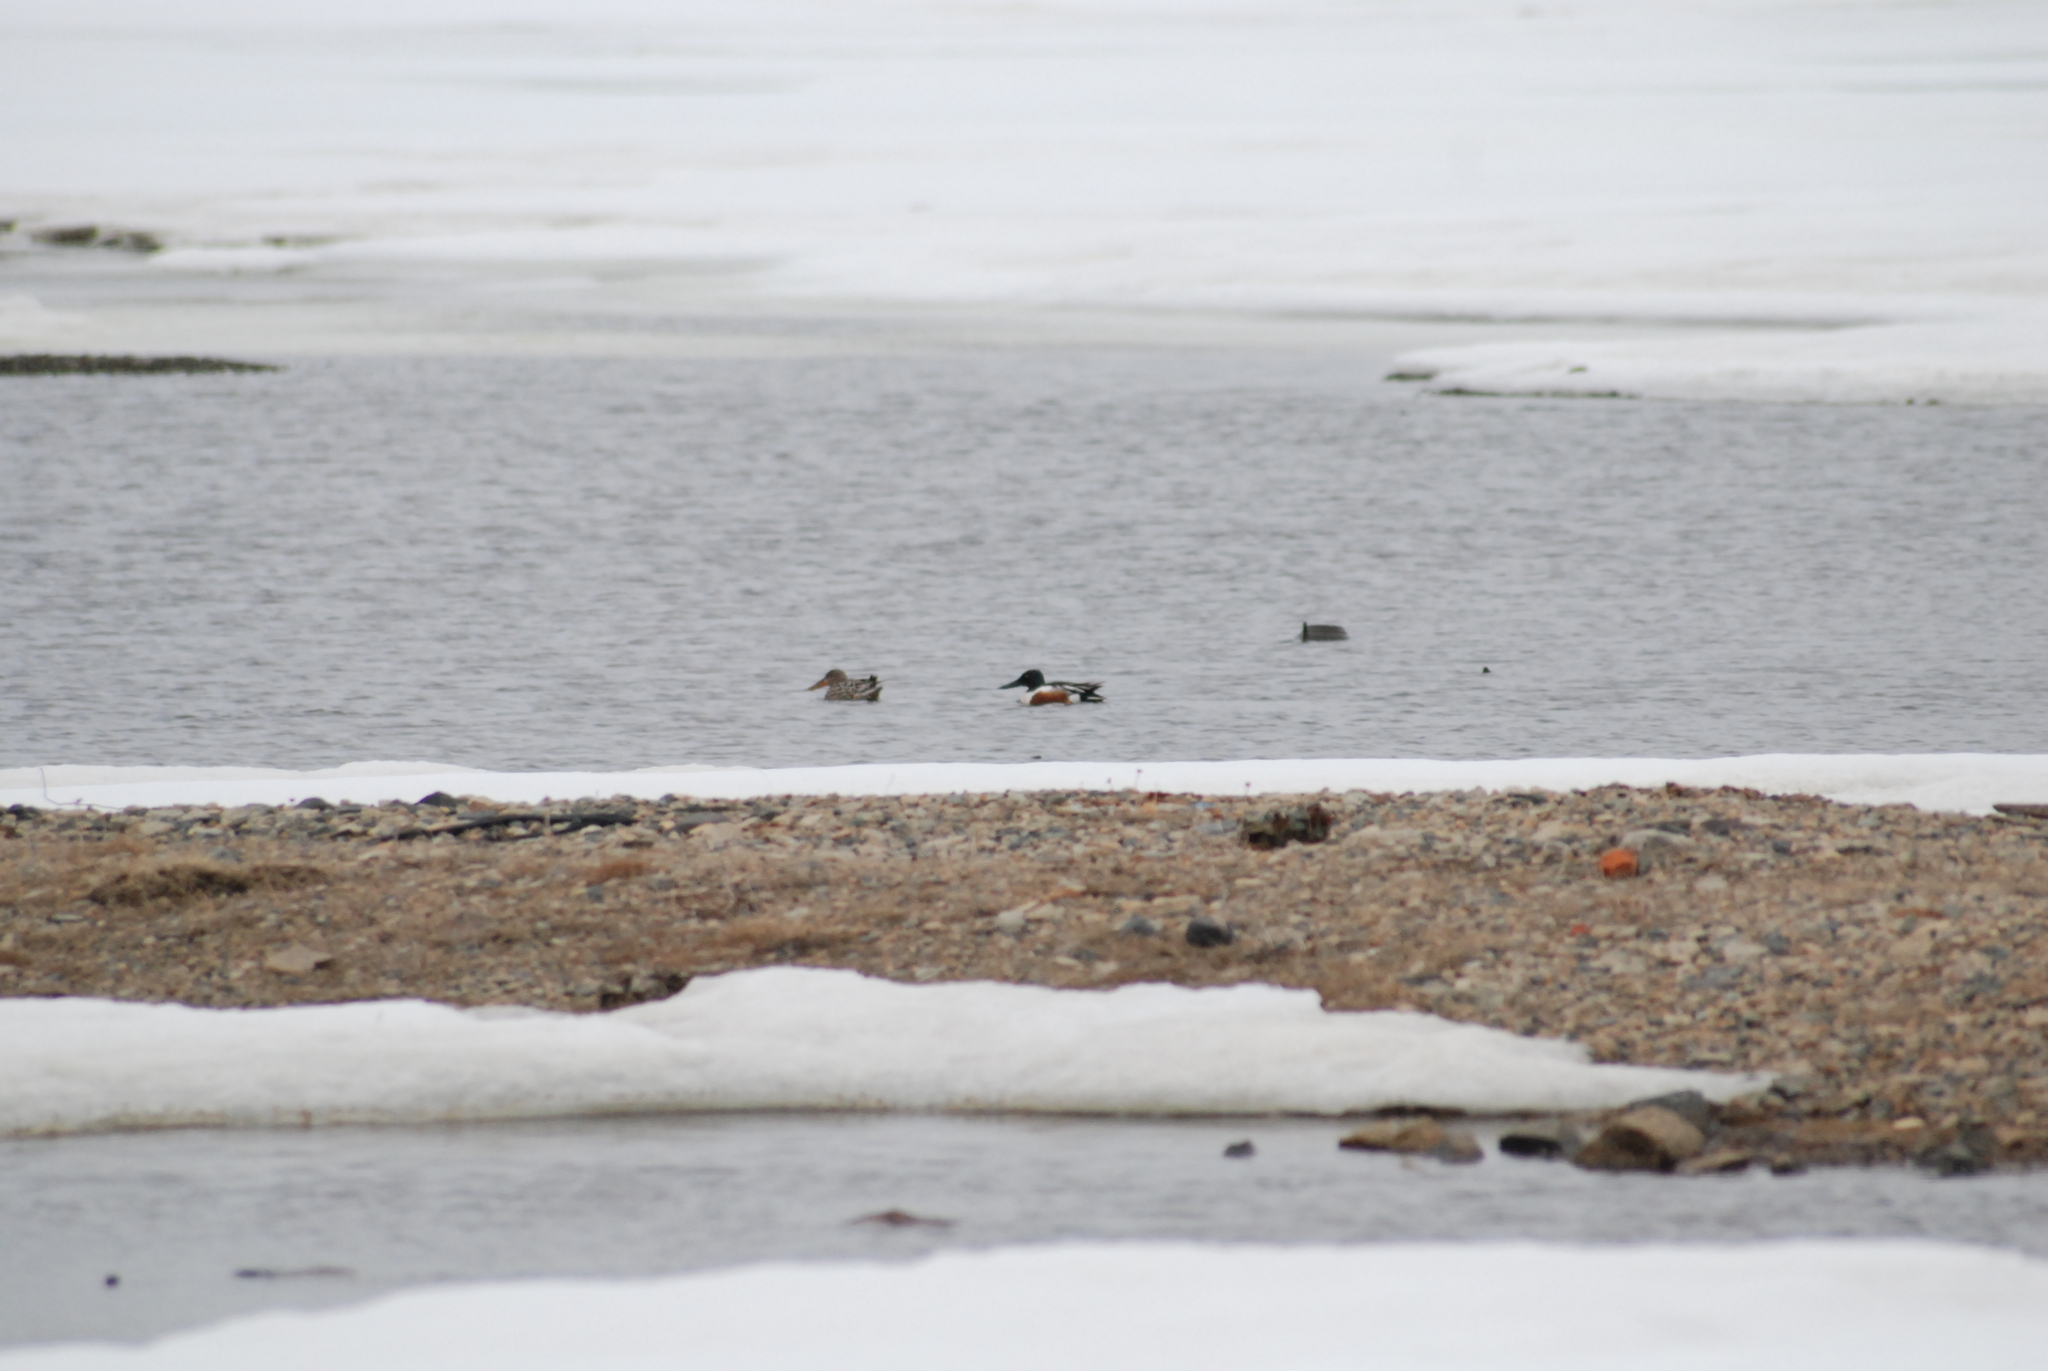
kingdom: Animalia
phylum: Chordata
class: Aves
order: Anseriformes
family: Anatidae
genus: Spatula
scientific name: Spatula clypeata
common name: Northern shoveler
